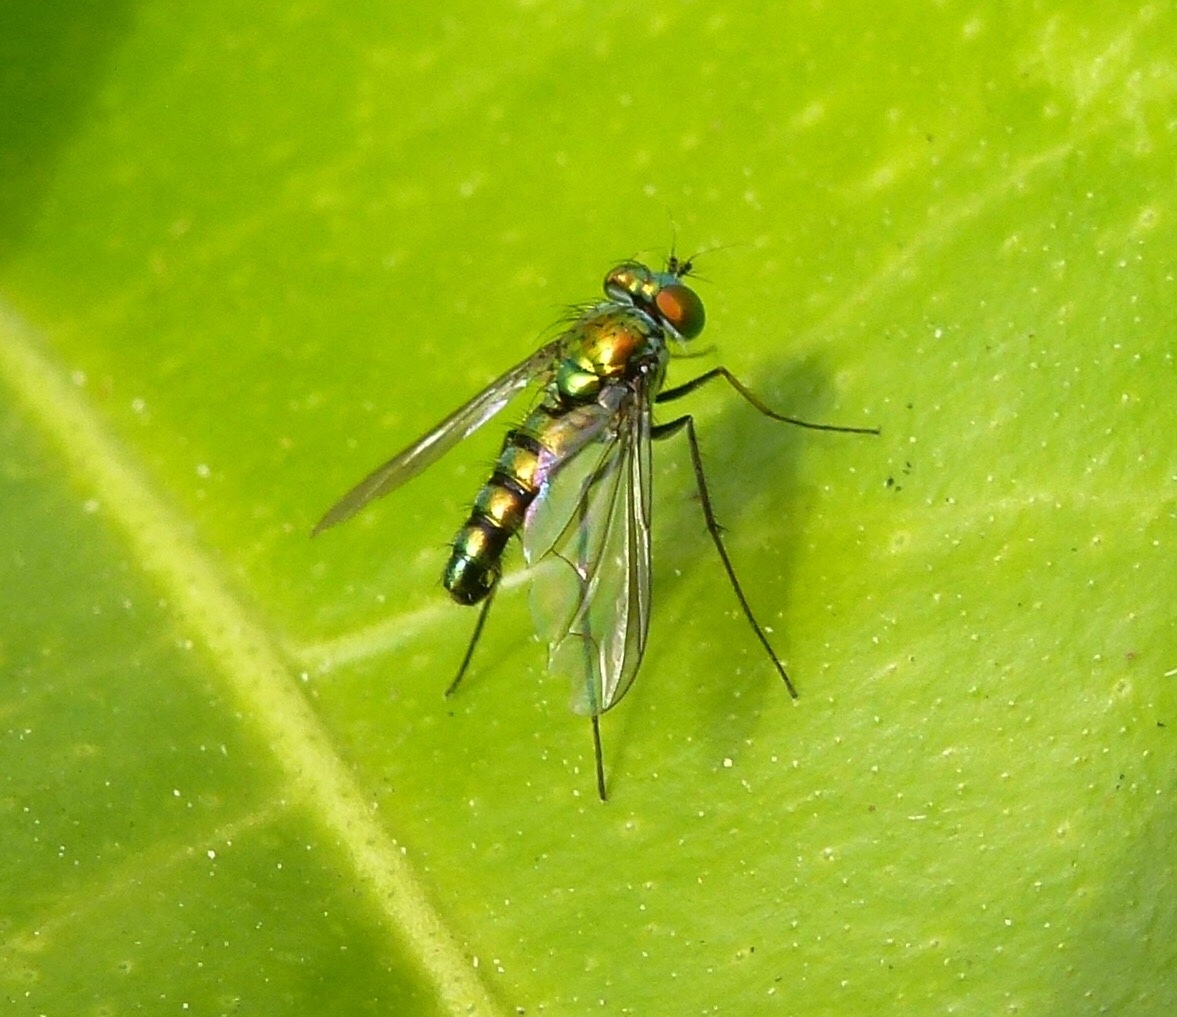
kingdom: Animalia
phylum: Arthropoda
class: Insecta
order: Diptera
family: Dolichopodidae
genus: Condylostylus
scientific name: Condylostylus longicornis
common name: Long-legged fly
